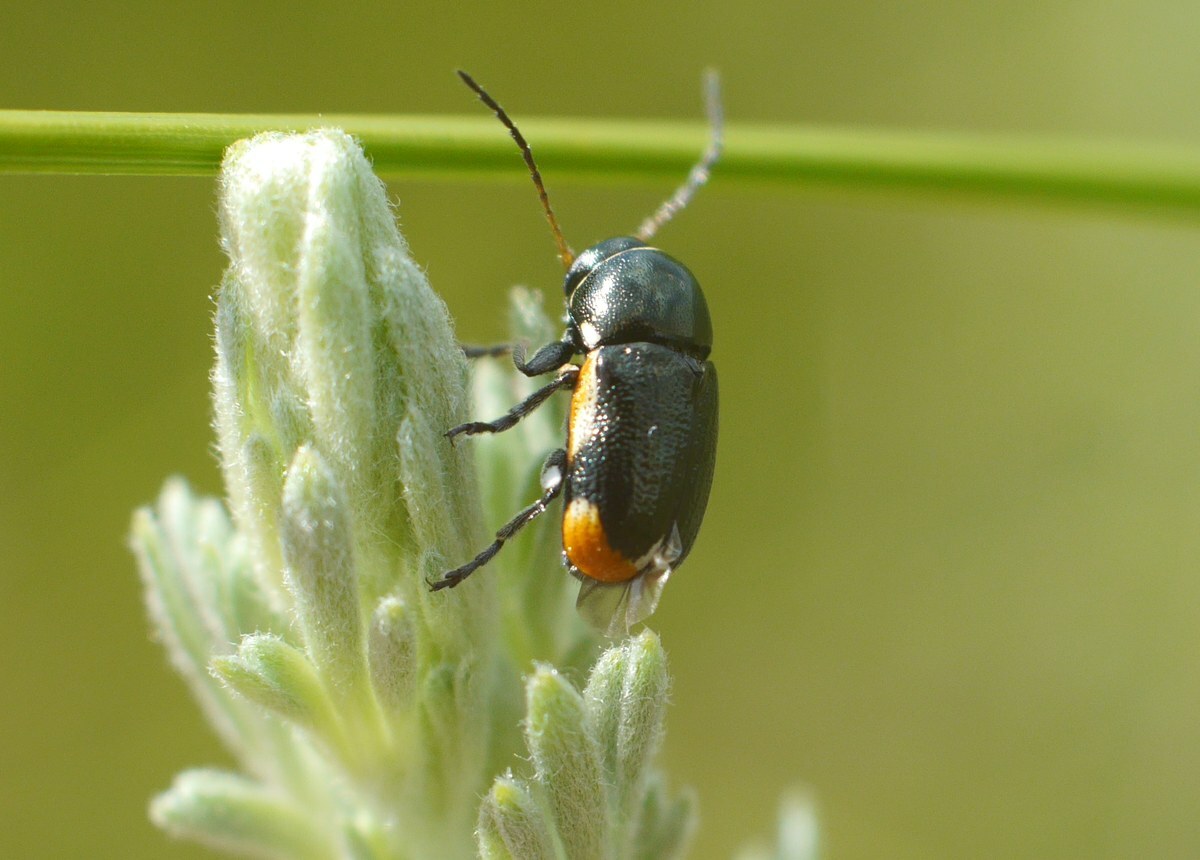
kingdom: Animalia
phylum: Arthropoda
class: Insecta
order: Coleoptera
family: Chrysomelidae
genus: Macromonycha
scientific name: Macromonycha apicalis
